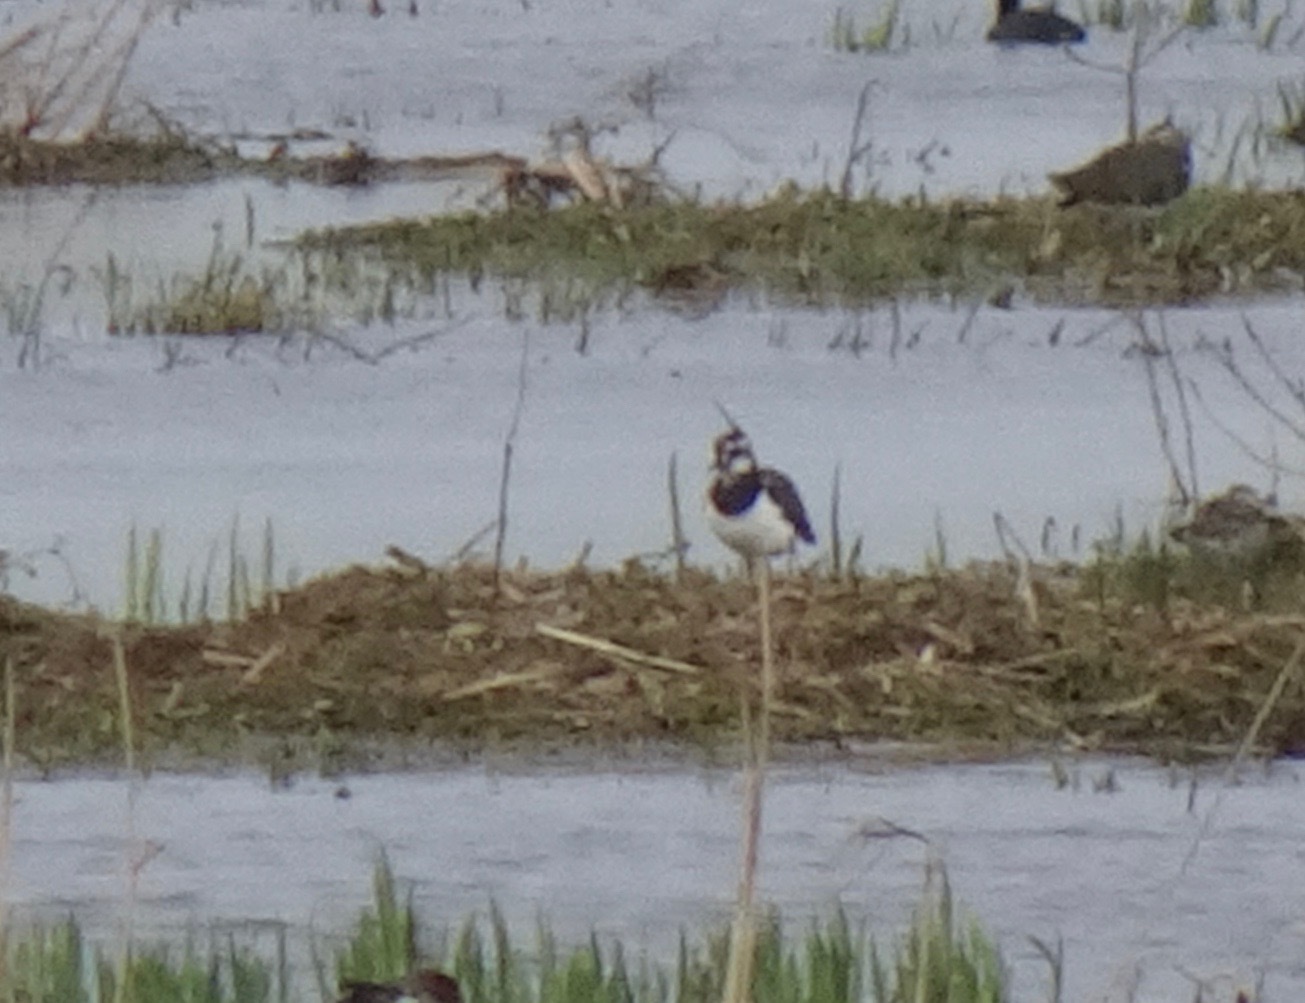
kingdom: Animalia
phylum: Chordata
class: Aves
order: Charadriiformes
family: Charadriidae
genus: Vanellus
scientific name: Vanellus vanellus
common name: Northern lapwing
